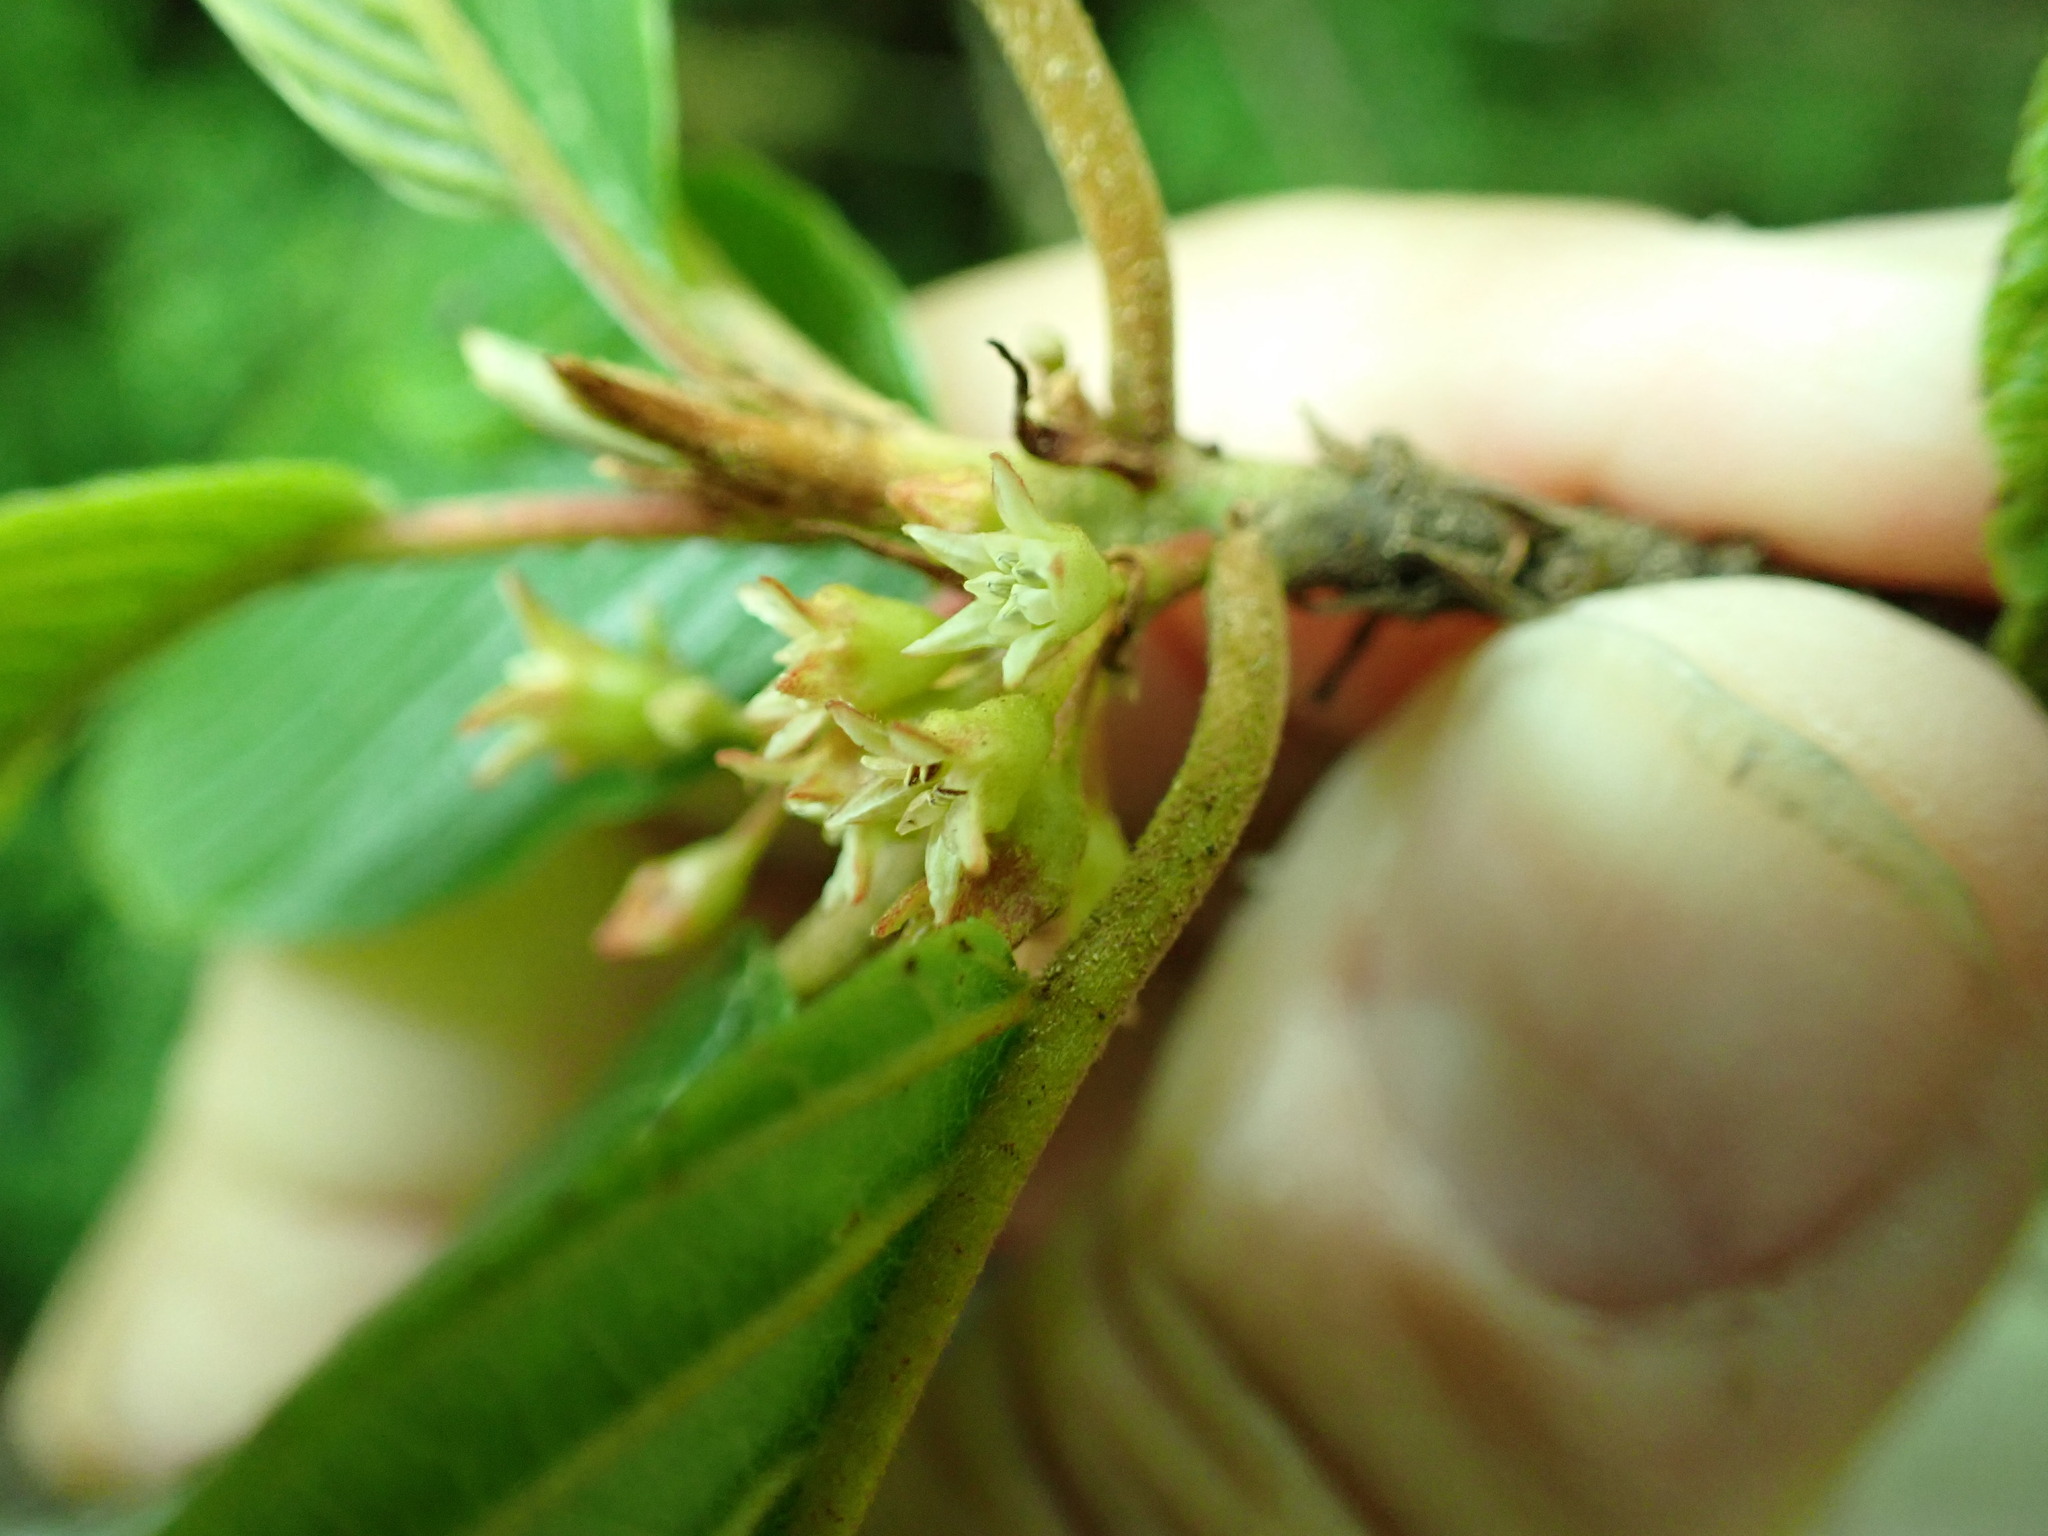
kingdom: Plantae
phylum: Tracheophyta
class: Magnoliopsida
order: Rosales
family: Rhamnaceae
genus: Frangula
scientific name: Frangula purshiana
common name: Cascara buckthorn
